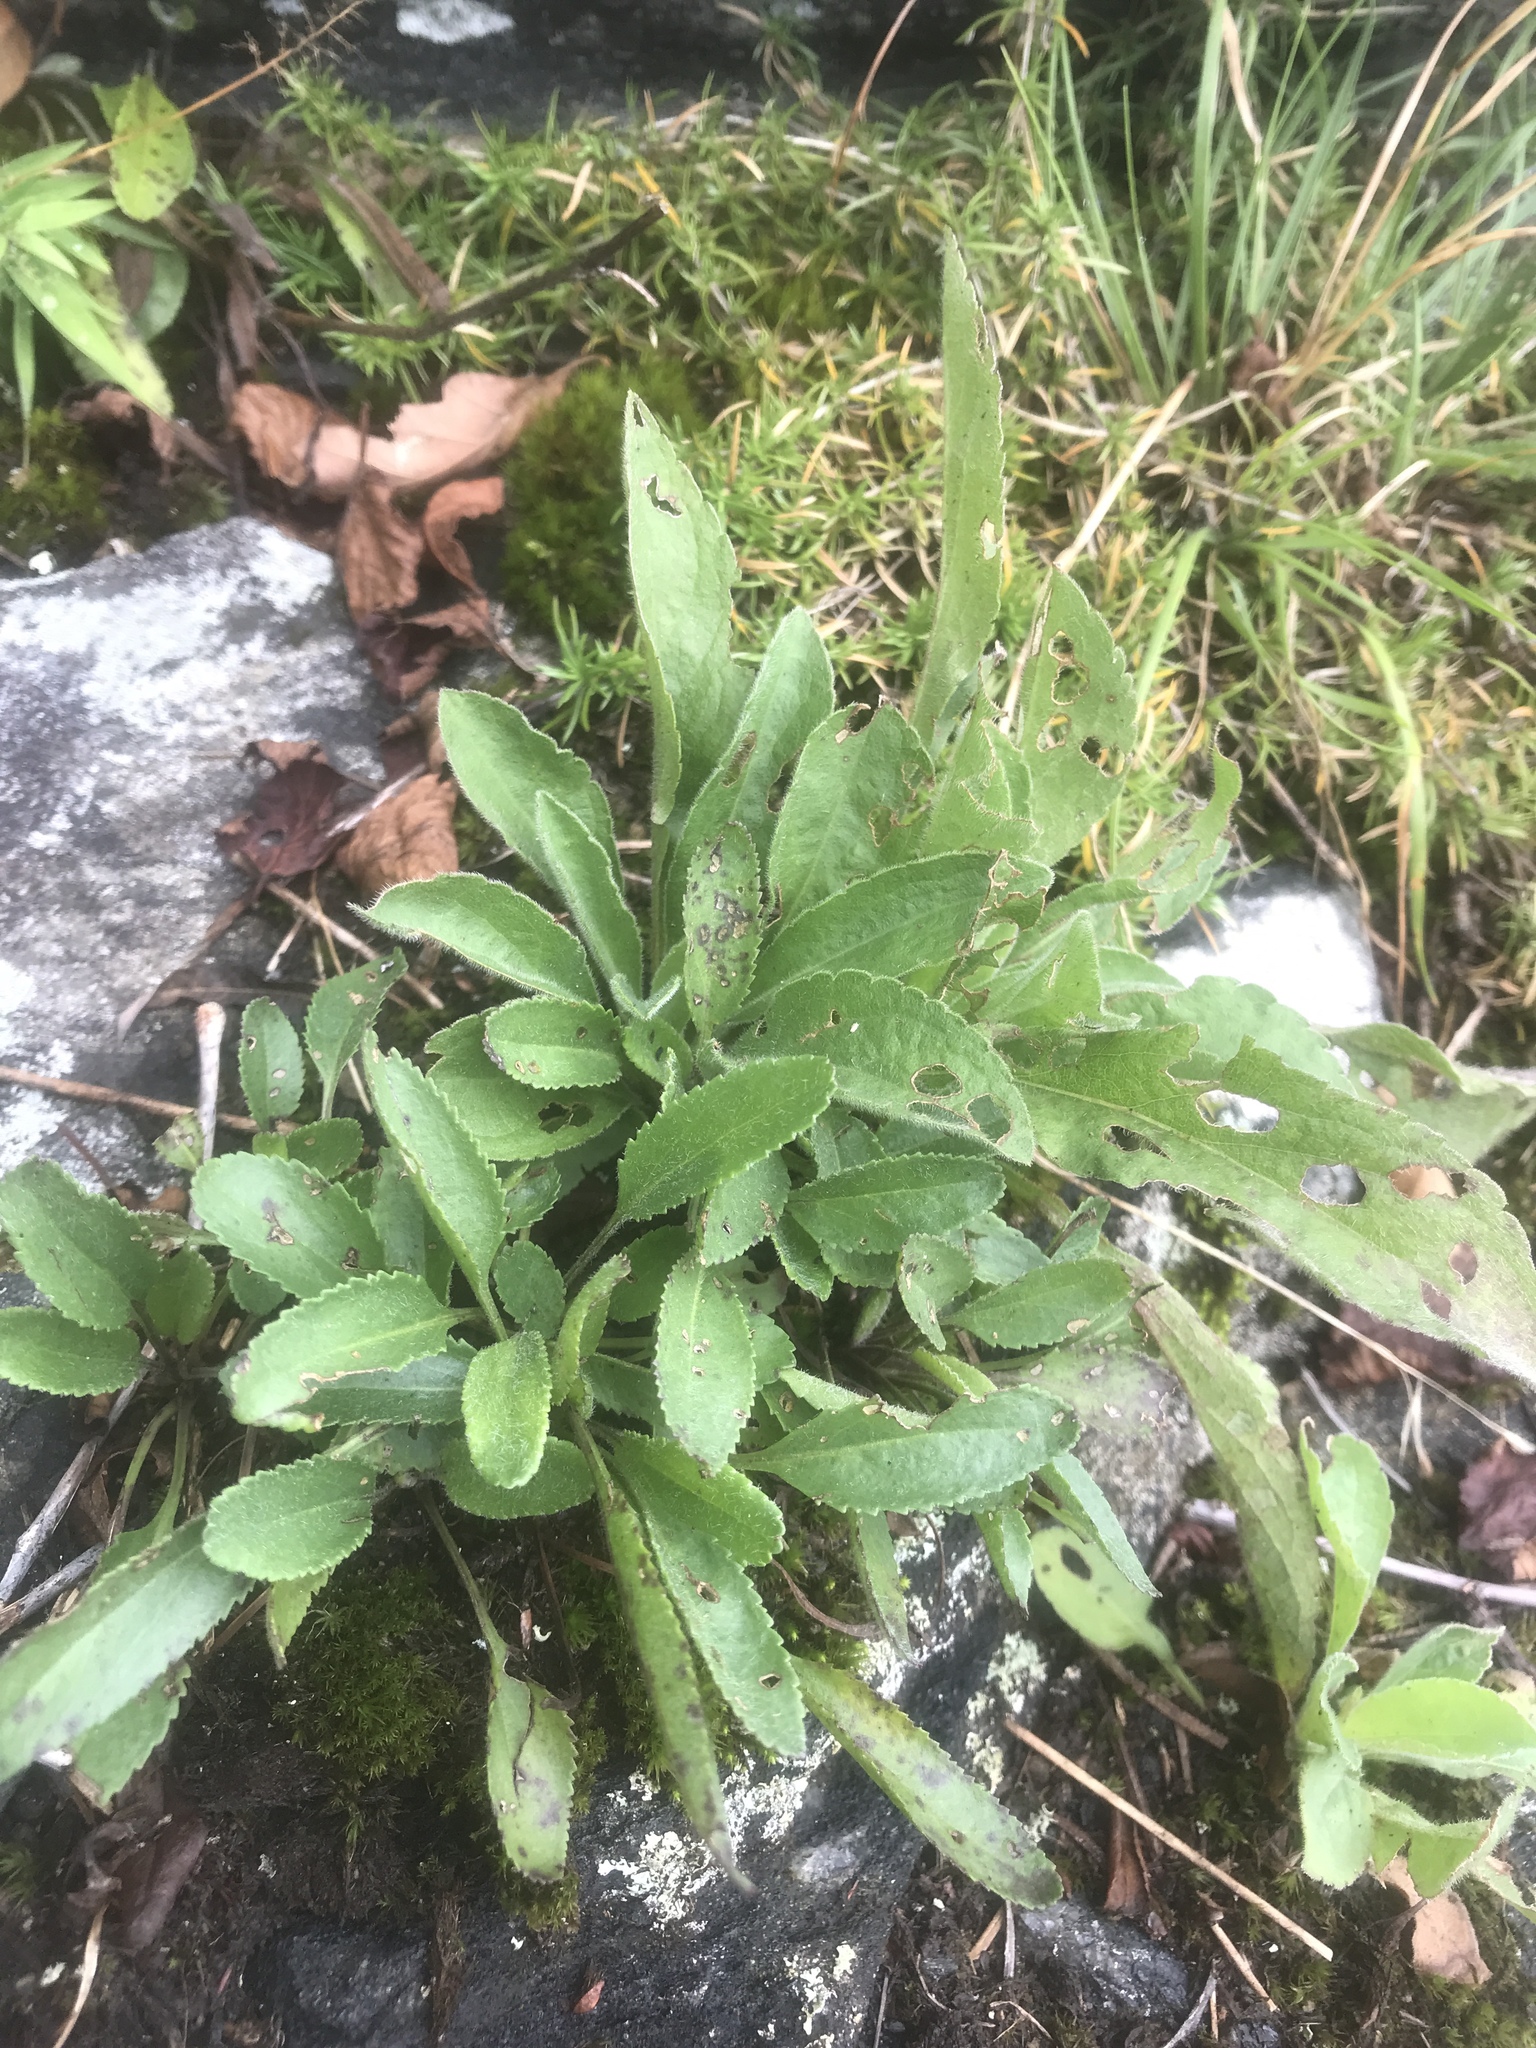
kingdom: Plantae
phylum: Tracheophyta
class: Magnoliopsida
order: Asterales
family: Asteraceae
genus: Packera
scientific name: Packera paupercula
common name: Balsam groundsel
